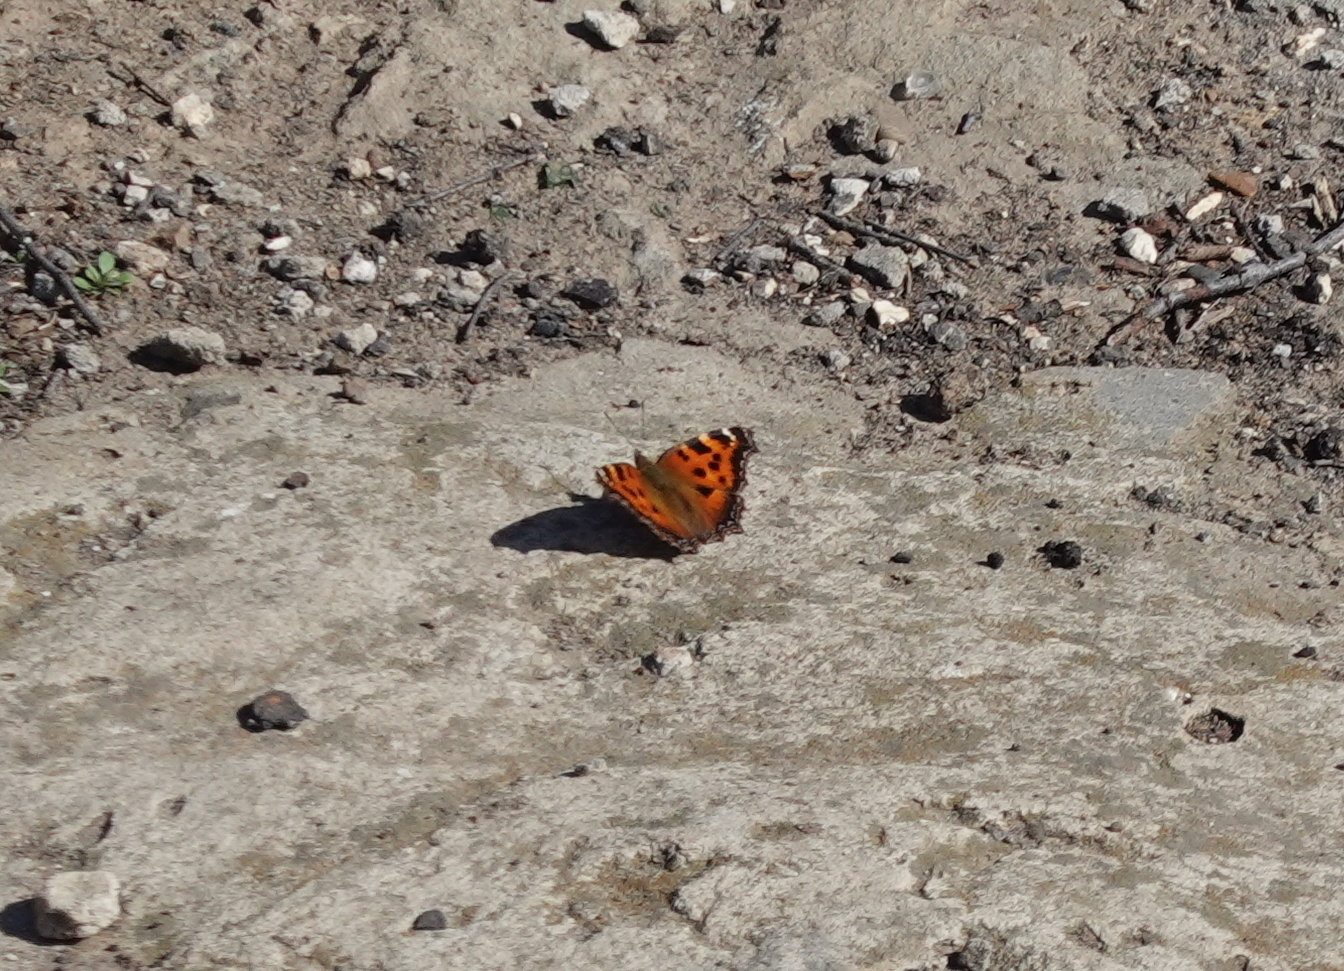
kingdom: Animalia
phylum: Arthropoda
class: Insecta
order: Lepidoptera
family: Nymphalidae
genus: Nymphalis
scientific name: Nymphalis xanthomelas
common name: Scarce tortoiseshell
